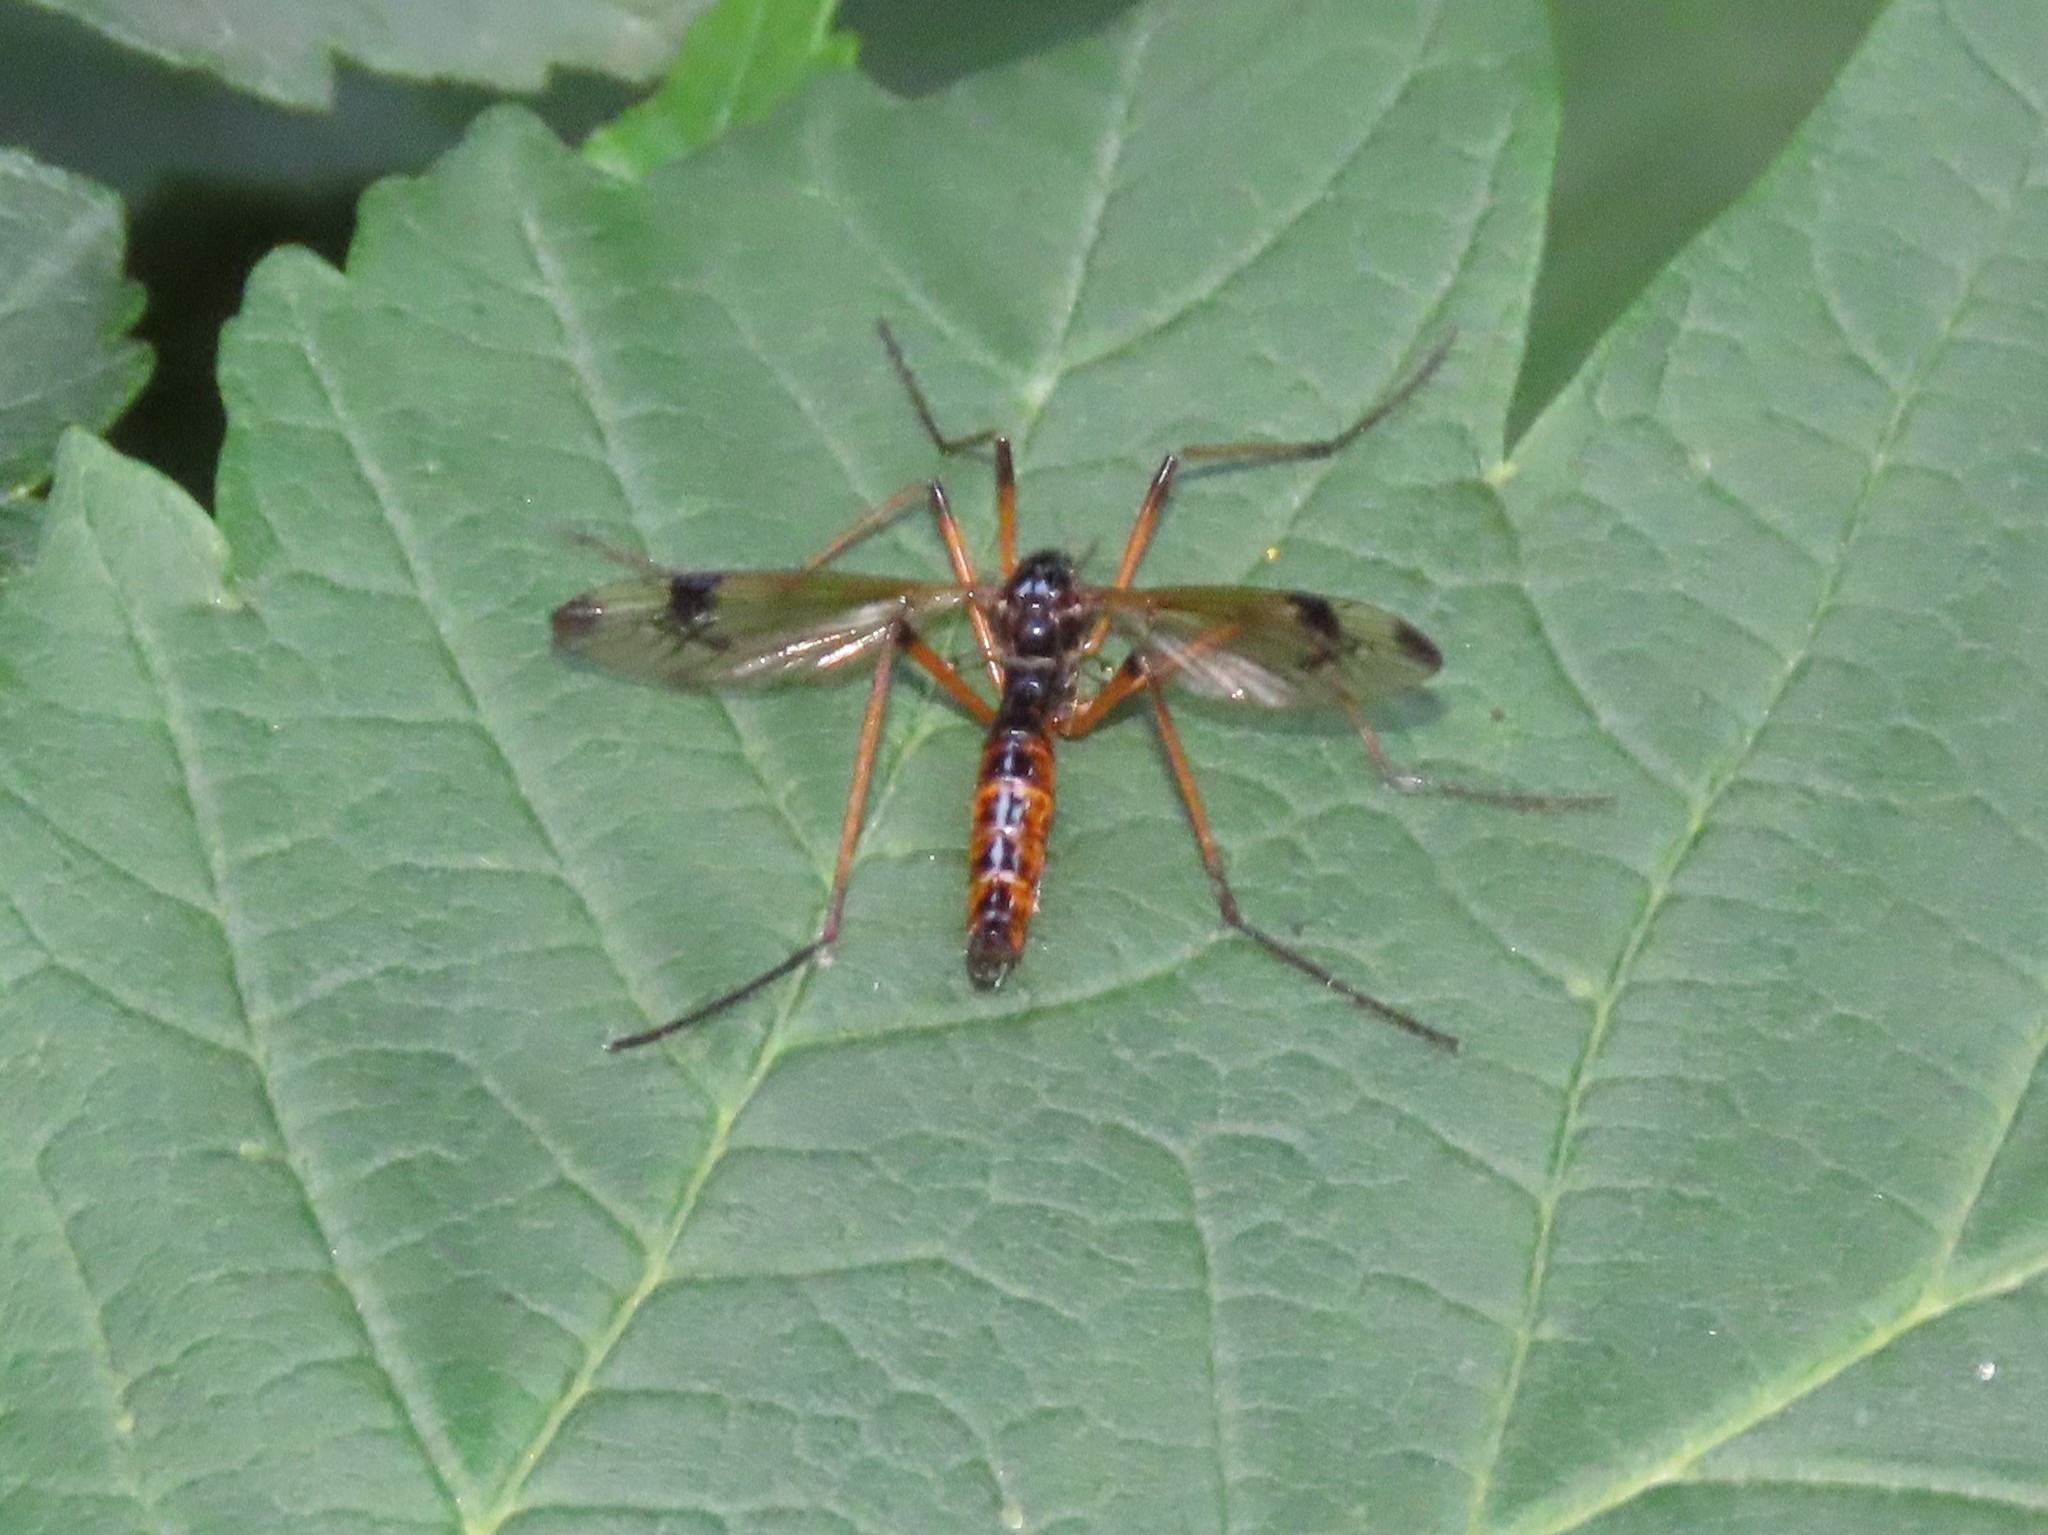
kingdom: Animalia
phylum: Arthropoda
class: Insecta
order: Diptera
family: Tipulidae
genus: Dictenidia
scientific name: Dictenidia bimaculata
